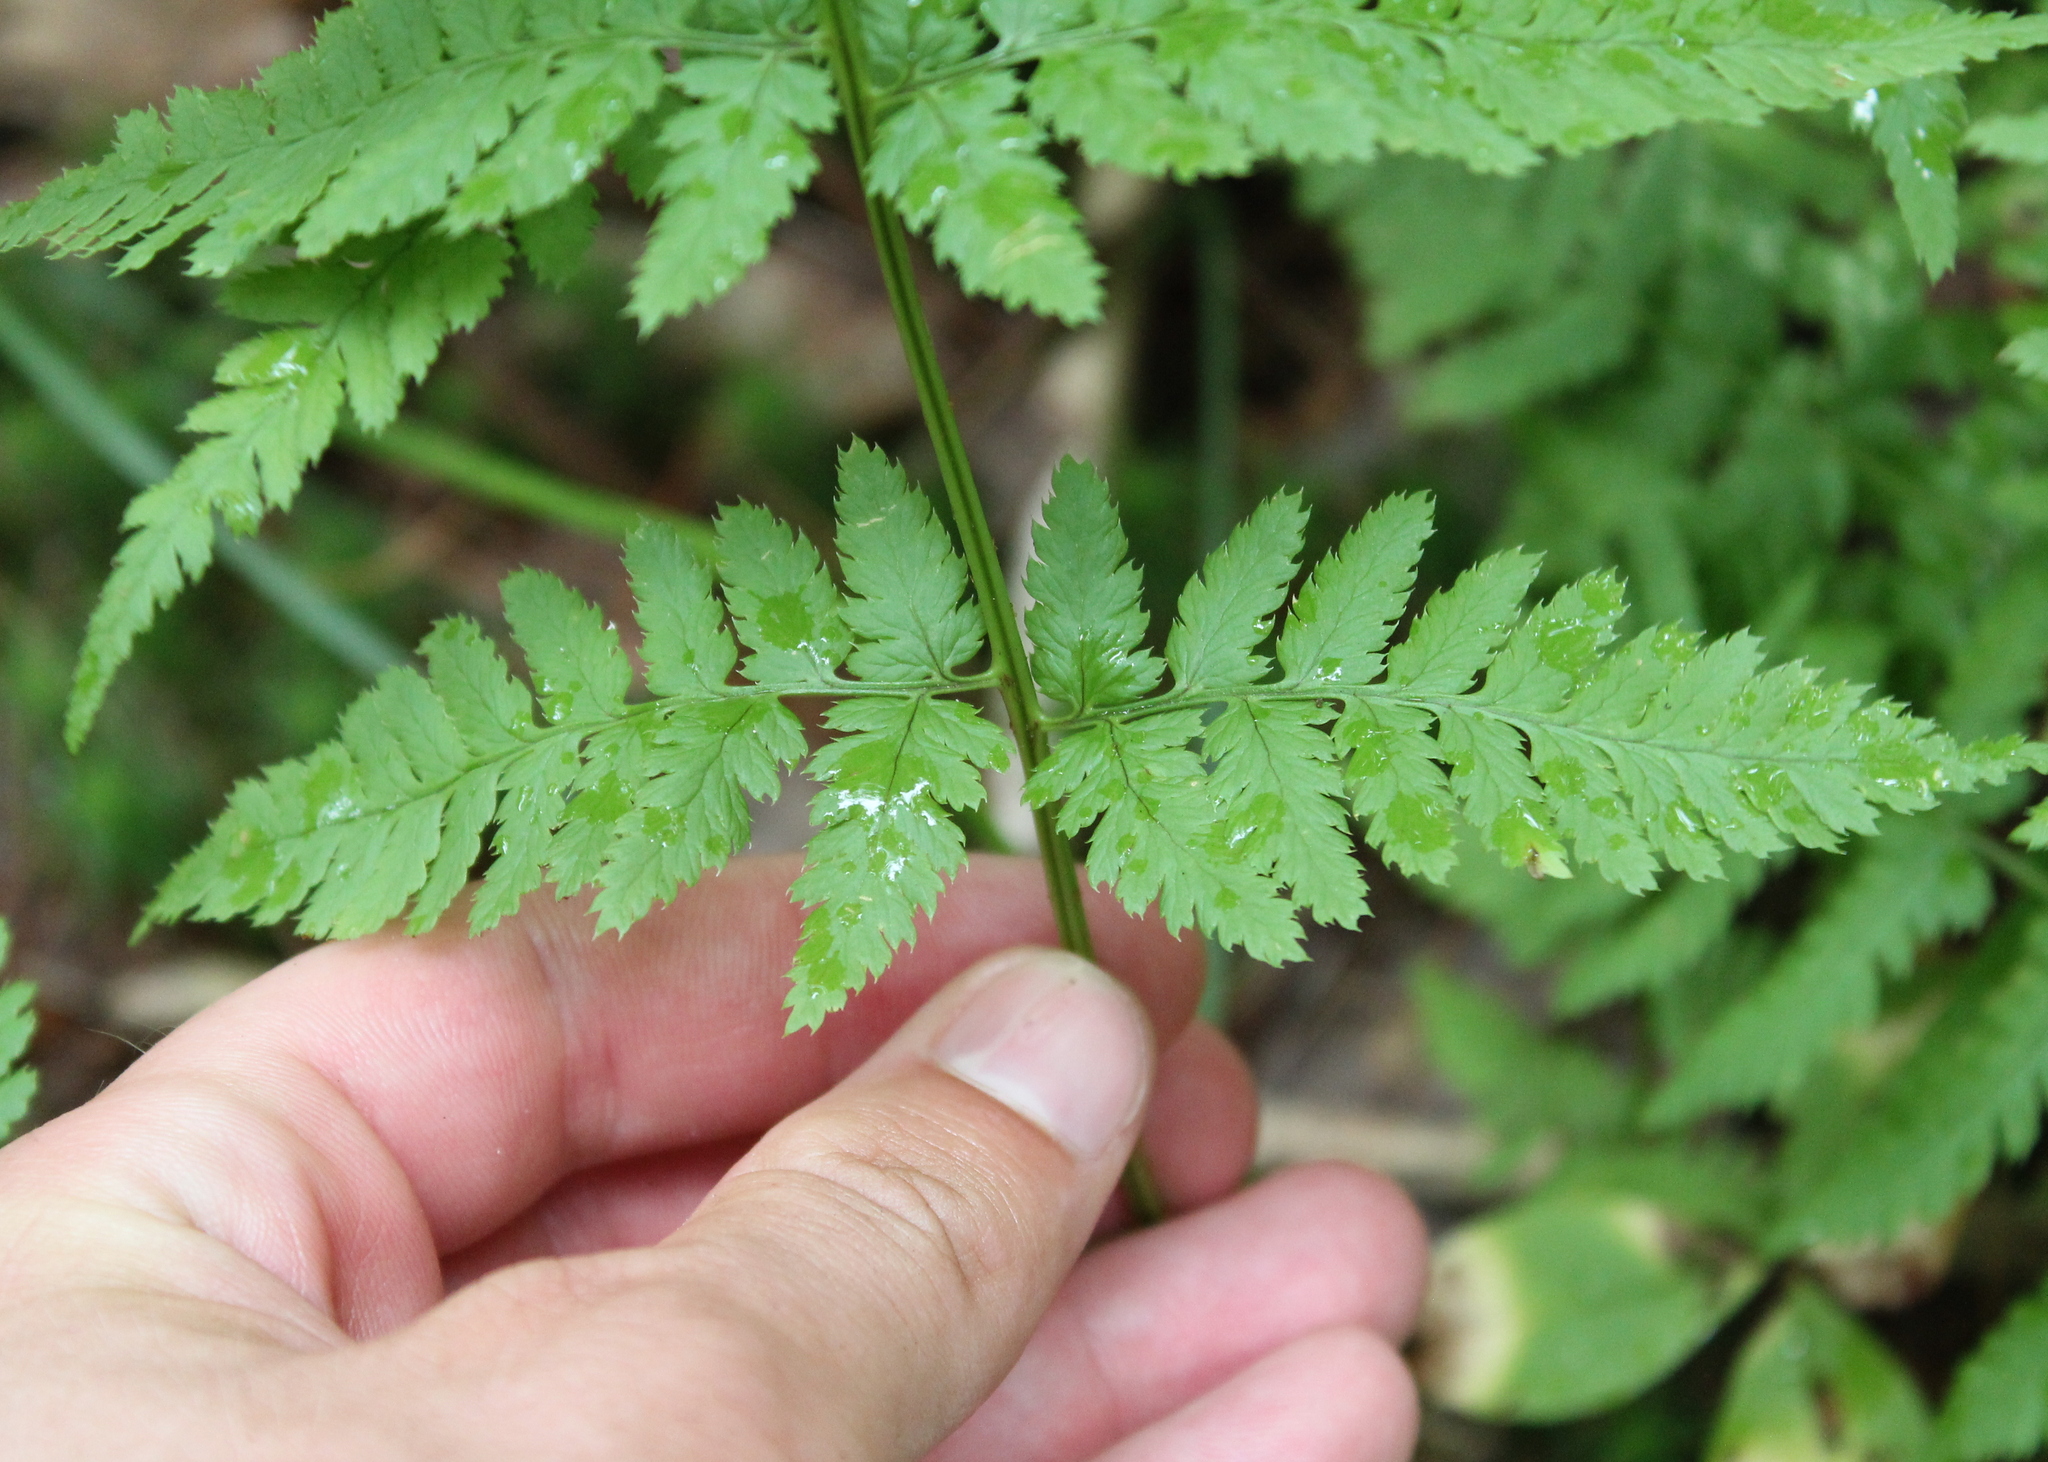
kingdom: Plantae
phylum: Tracheophyta
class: Polypodiopsida
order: Polypodiales
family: Dryopteridaceae
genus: Dryopteris
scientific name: Dryopteris carthusiana
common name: Narrow buckler-fern
